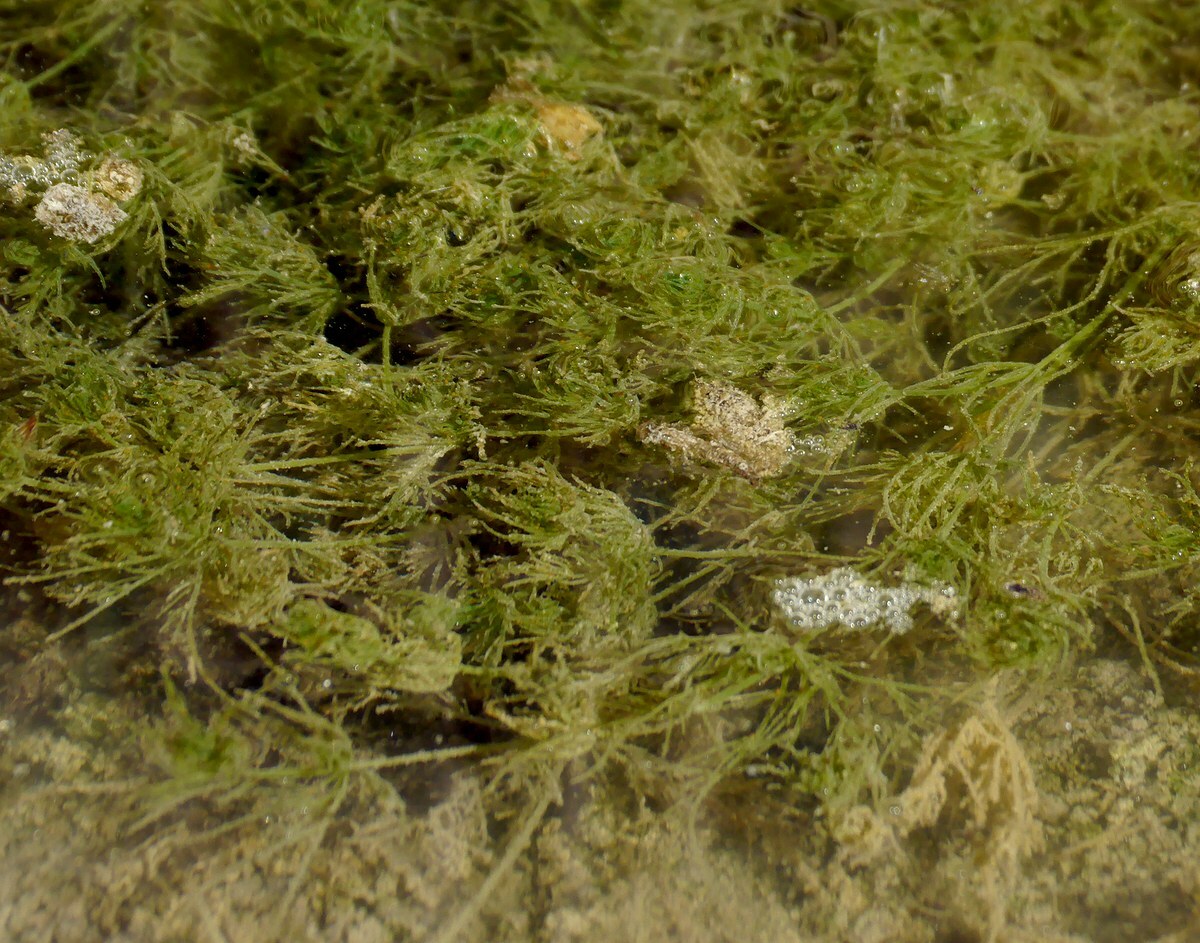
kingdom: Plantae
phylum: Charophyta
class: Charophyceae
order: Charales
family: Characeae
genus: Chara
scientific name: Chara vulgaris
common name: Common stonewort
